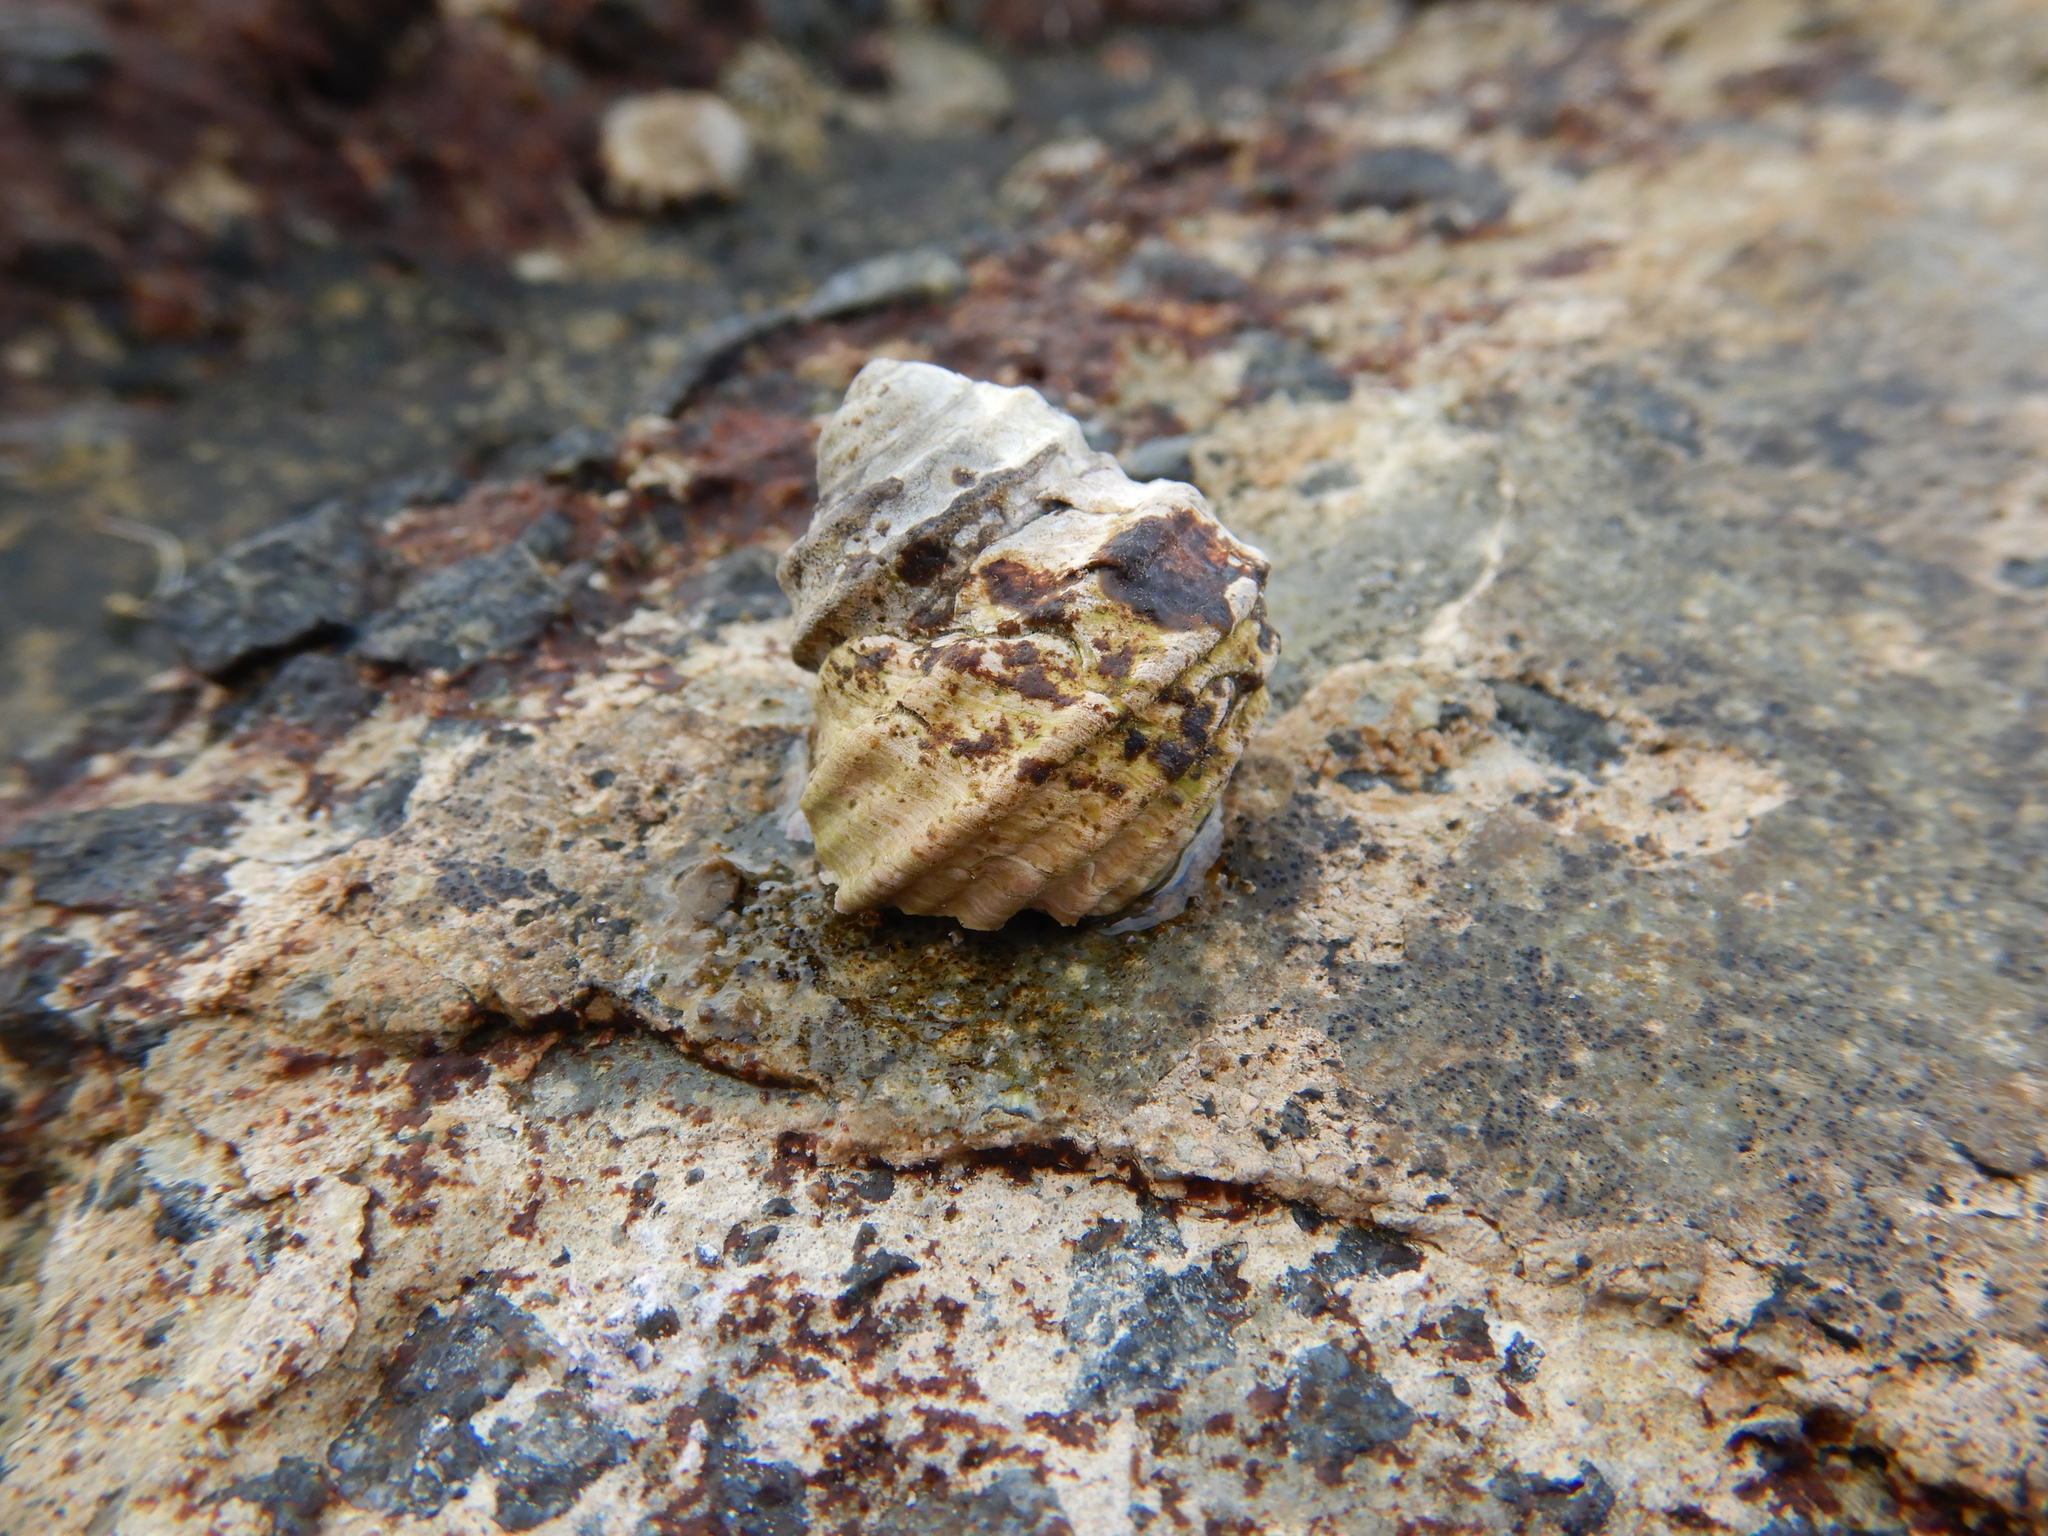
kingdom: Animalia
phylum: Mollusca
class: Gastropoda
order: Trochida
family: Trochidae
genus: Austrocochlea
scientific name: Austrocochlea constricta
